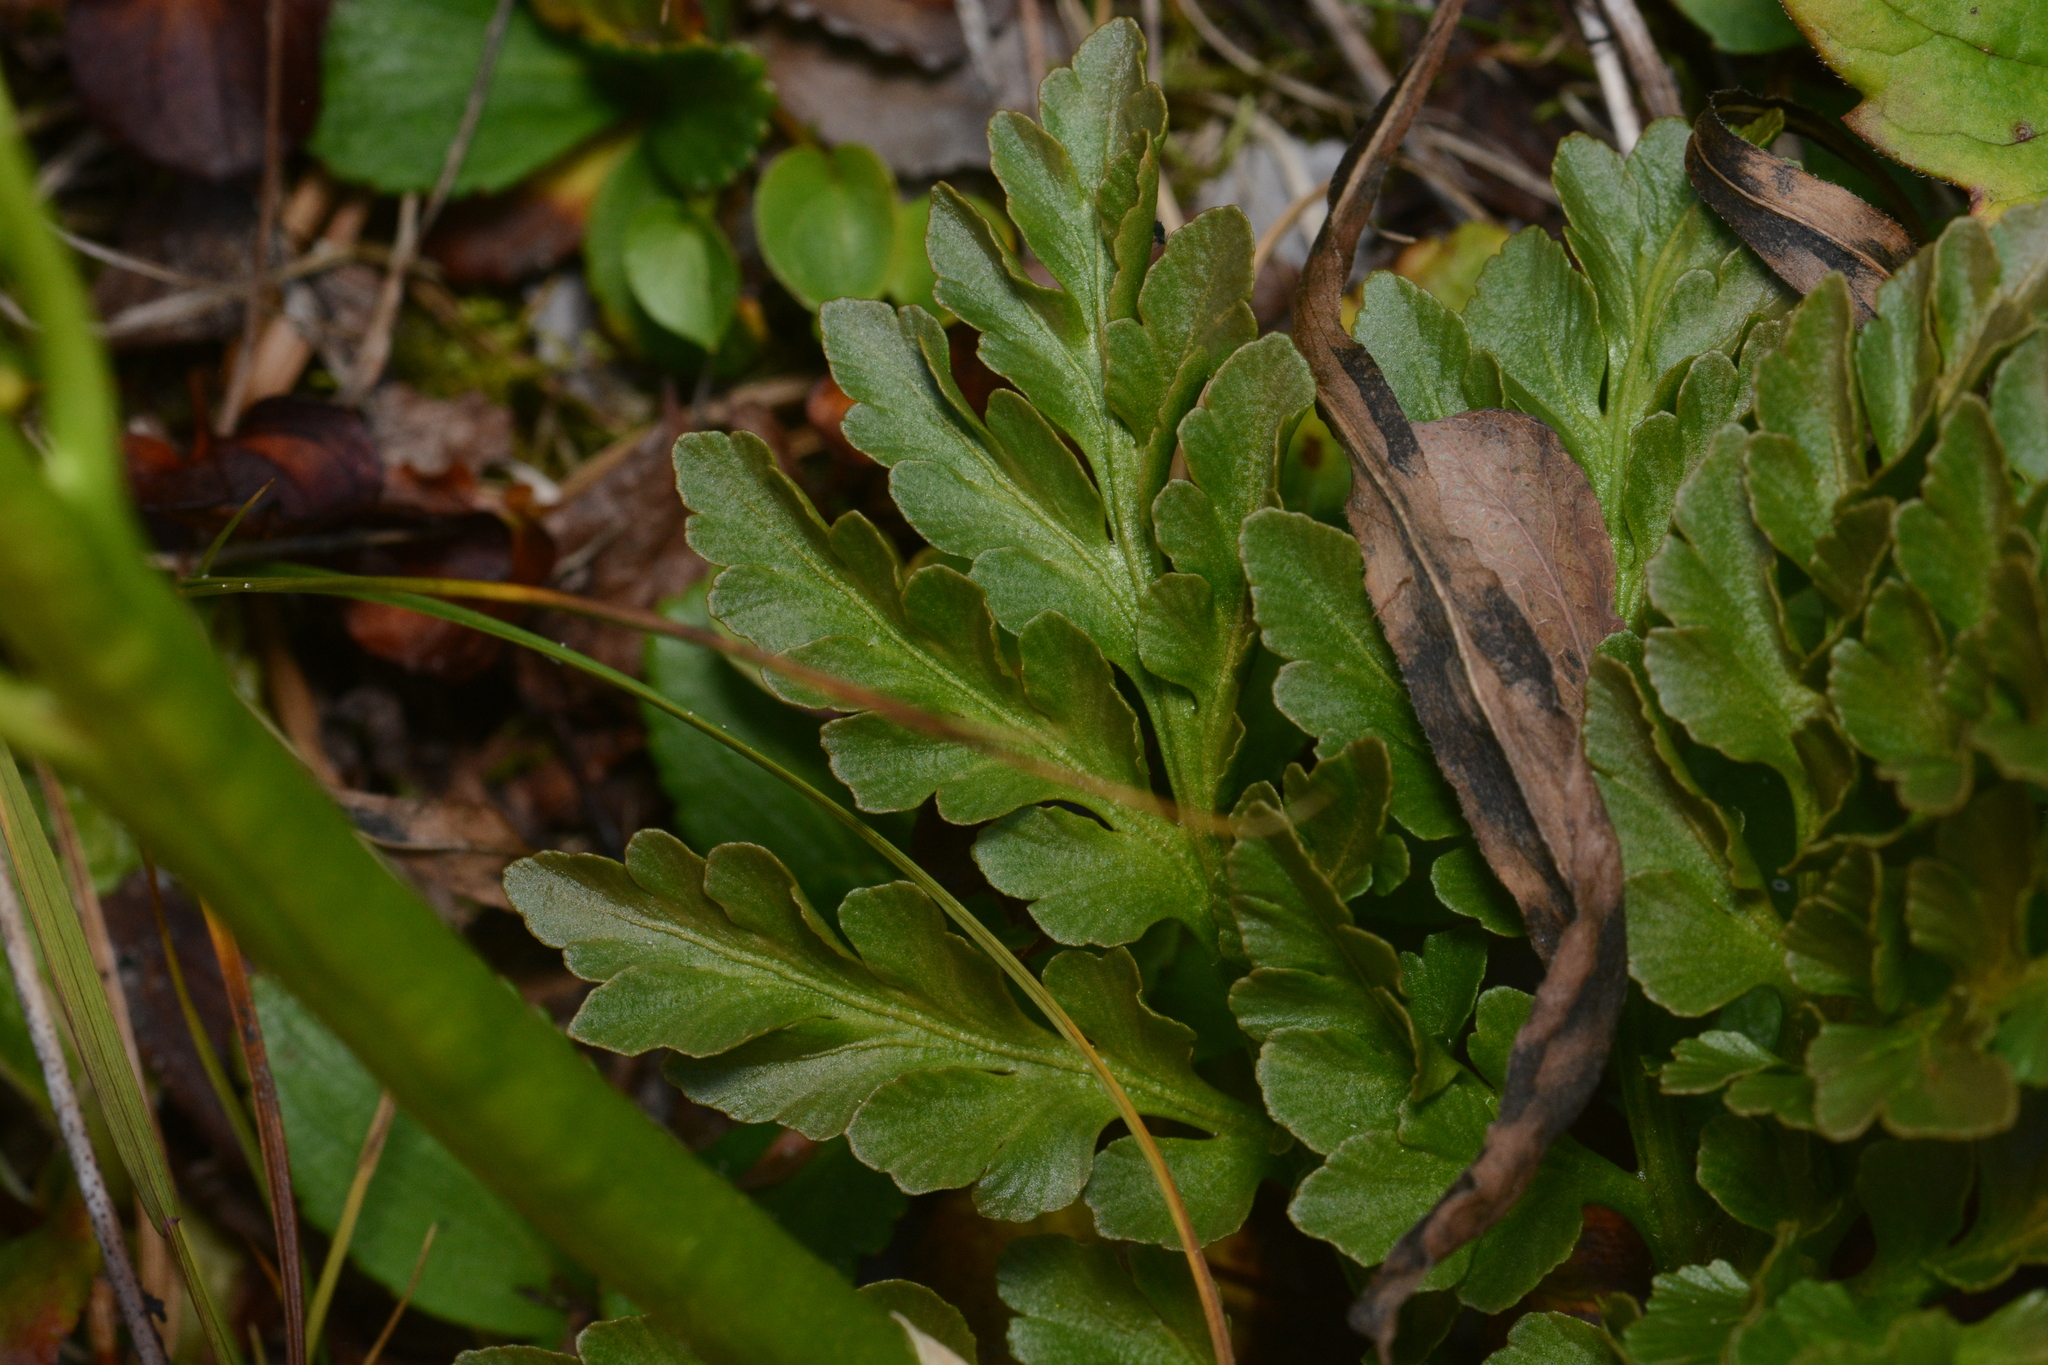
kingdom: Plantae
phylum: Tracheophyta
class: Polypodiopsida
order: Ophioglossales
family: Ophioglossaceae
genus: Sceptridium
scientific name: Sceptridium multifidum
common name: Leathery grape fern
